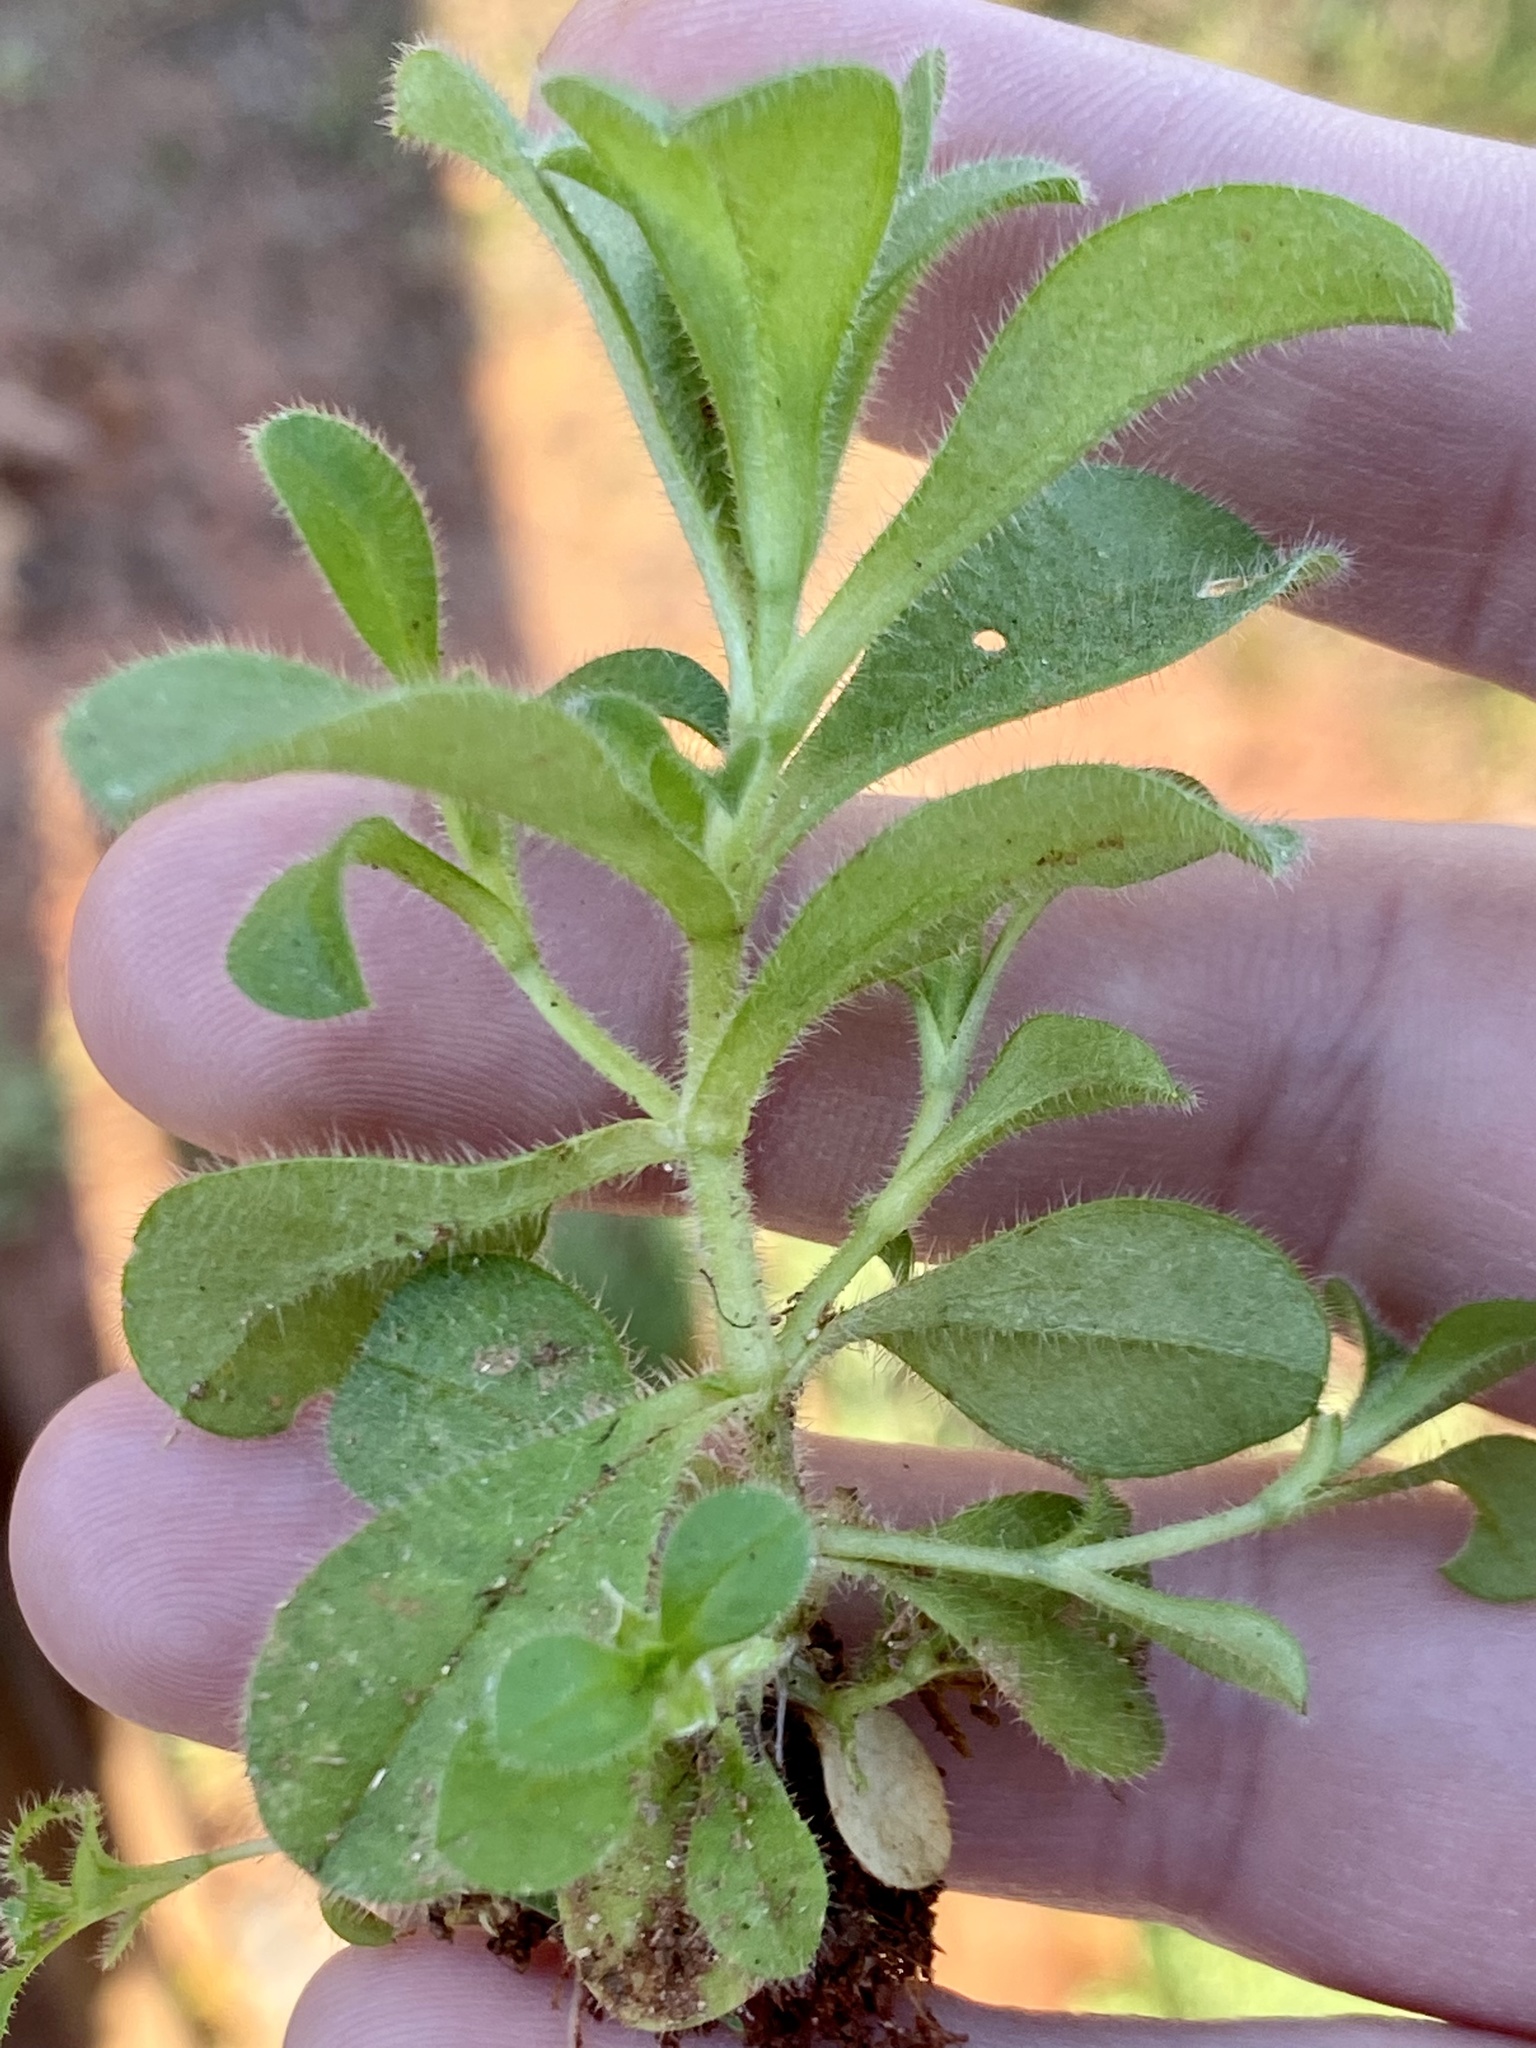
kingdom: Plantae
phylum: Tracheophyta
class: Magnoliopsida
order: Caryophyllales
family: Caryophyllaceae
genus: Cerastium
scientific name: Cerastium fontanum
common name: Common mouse-ear
